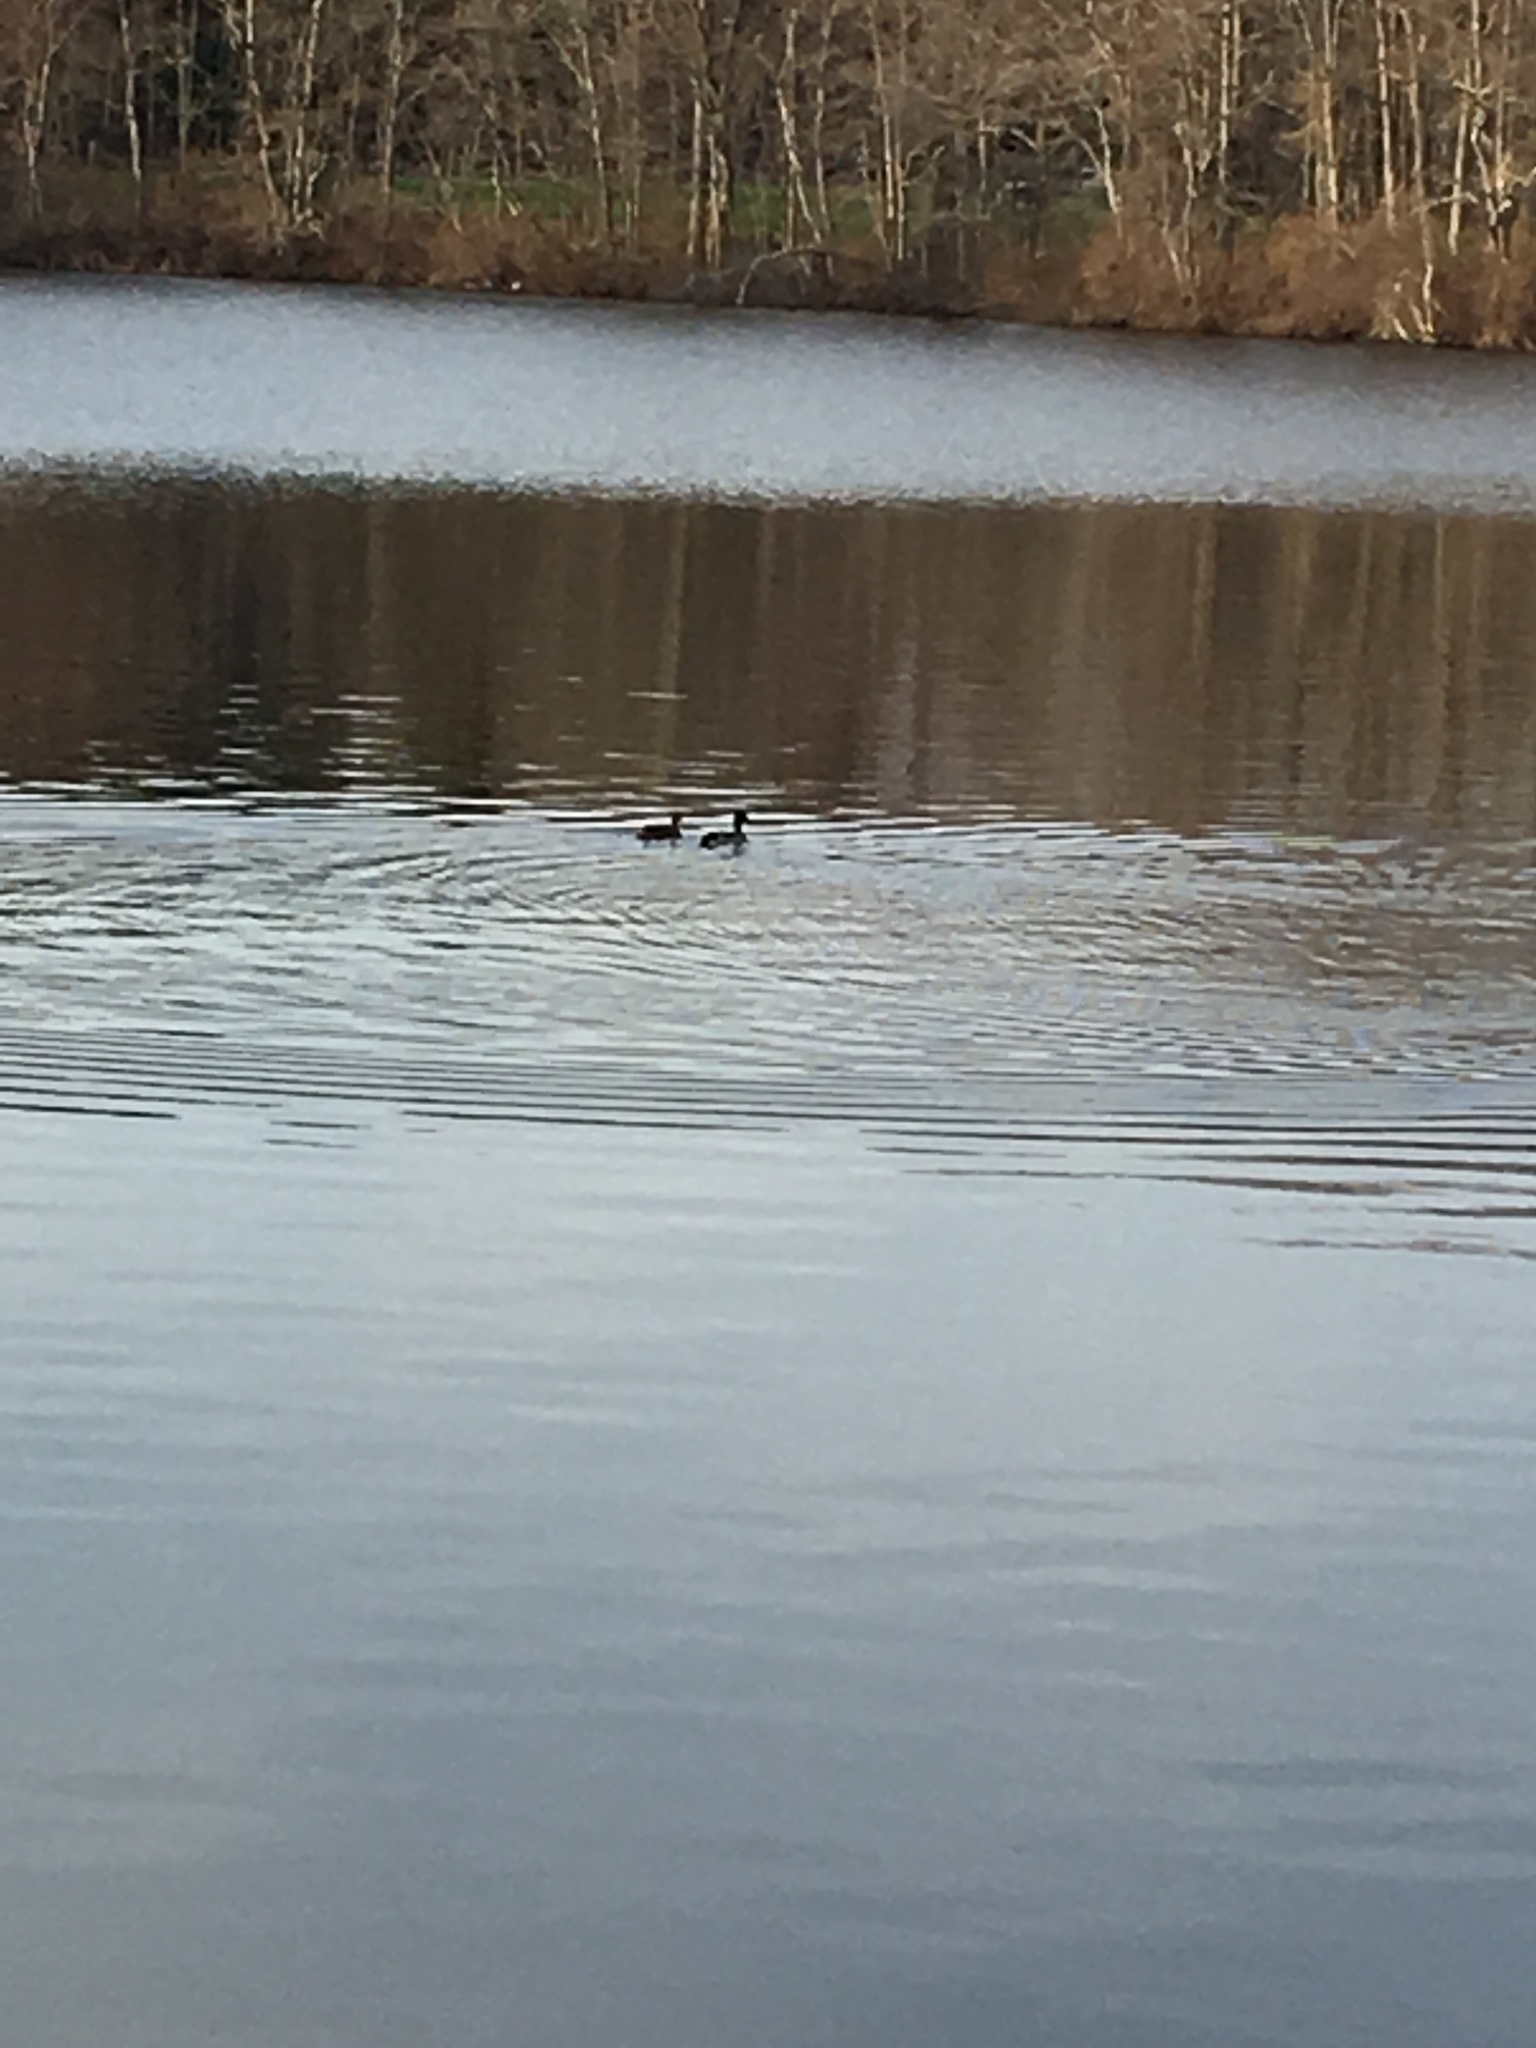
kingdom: Animalia
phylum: Chordata
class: Aves
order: Anseriformes
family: Anatidae
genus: Anas
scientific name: Anas platyrhynchos
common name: Mallard
